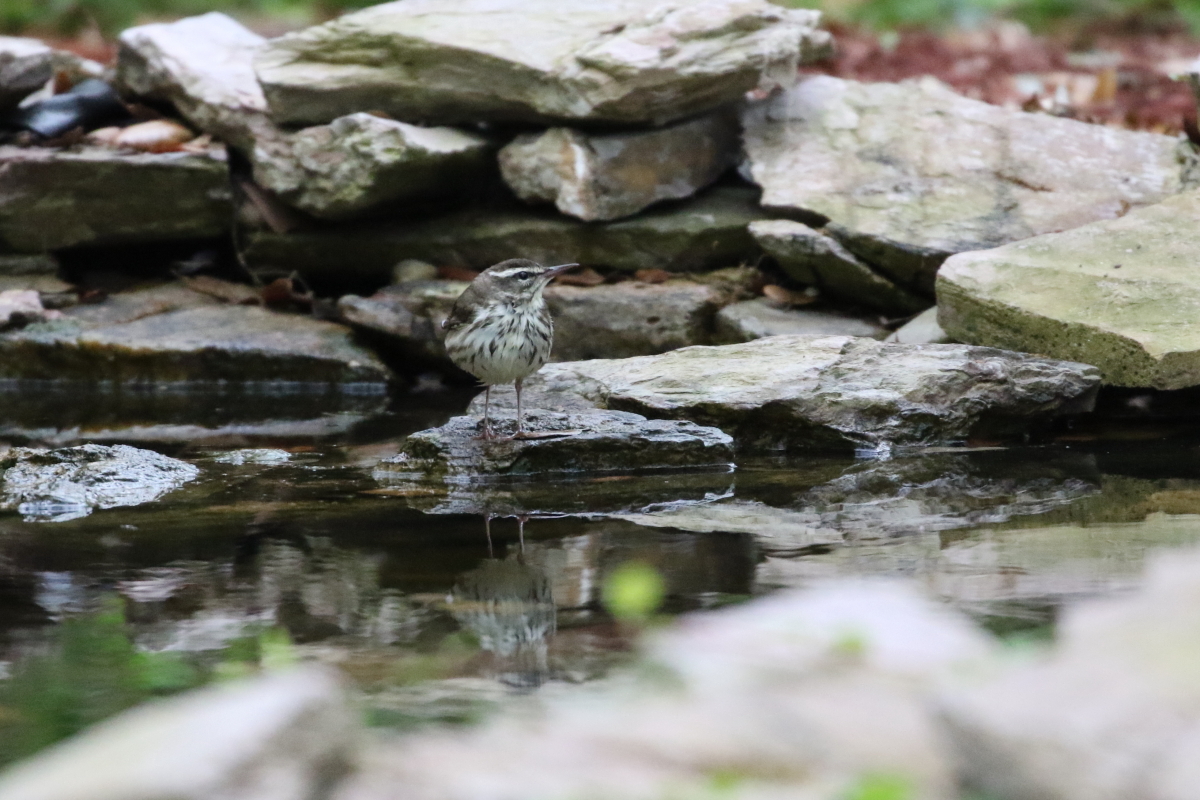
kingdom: Animalia
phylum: Chordata
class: Aves
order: Passeriformes
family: Parulidae
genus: Parkesia
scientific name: Parkesia motacilla
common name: Louisiana waterthrush
